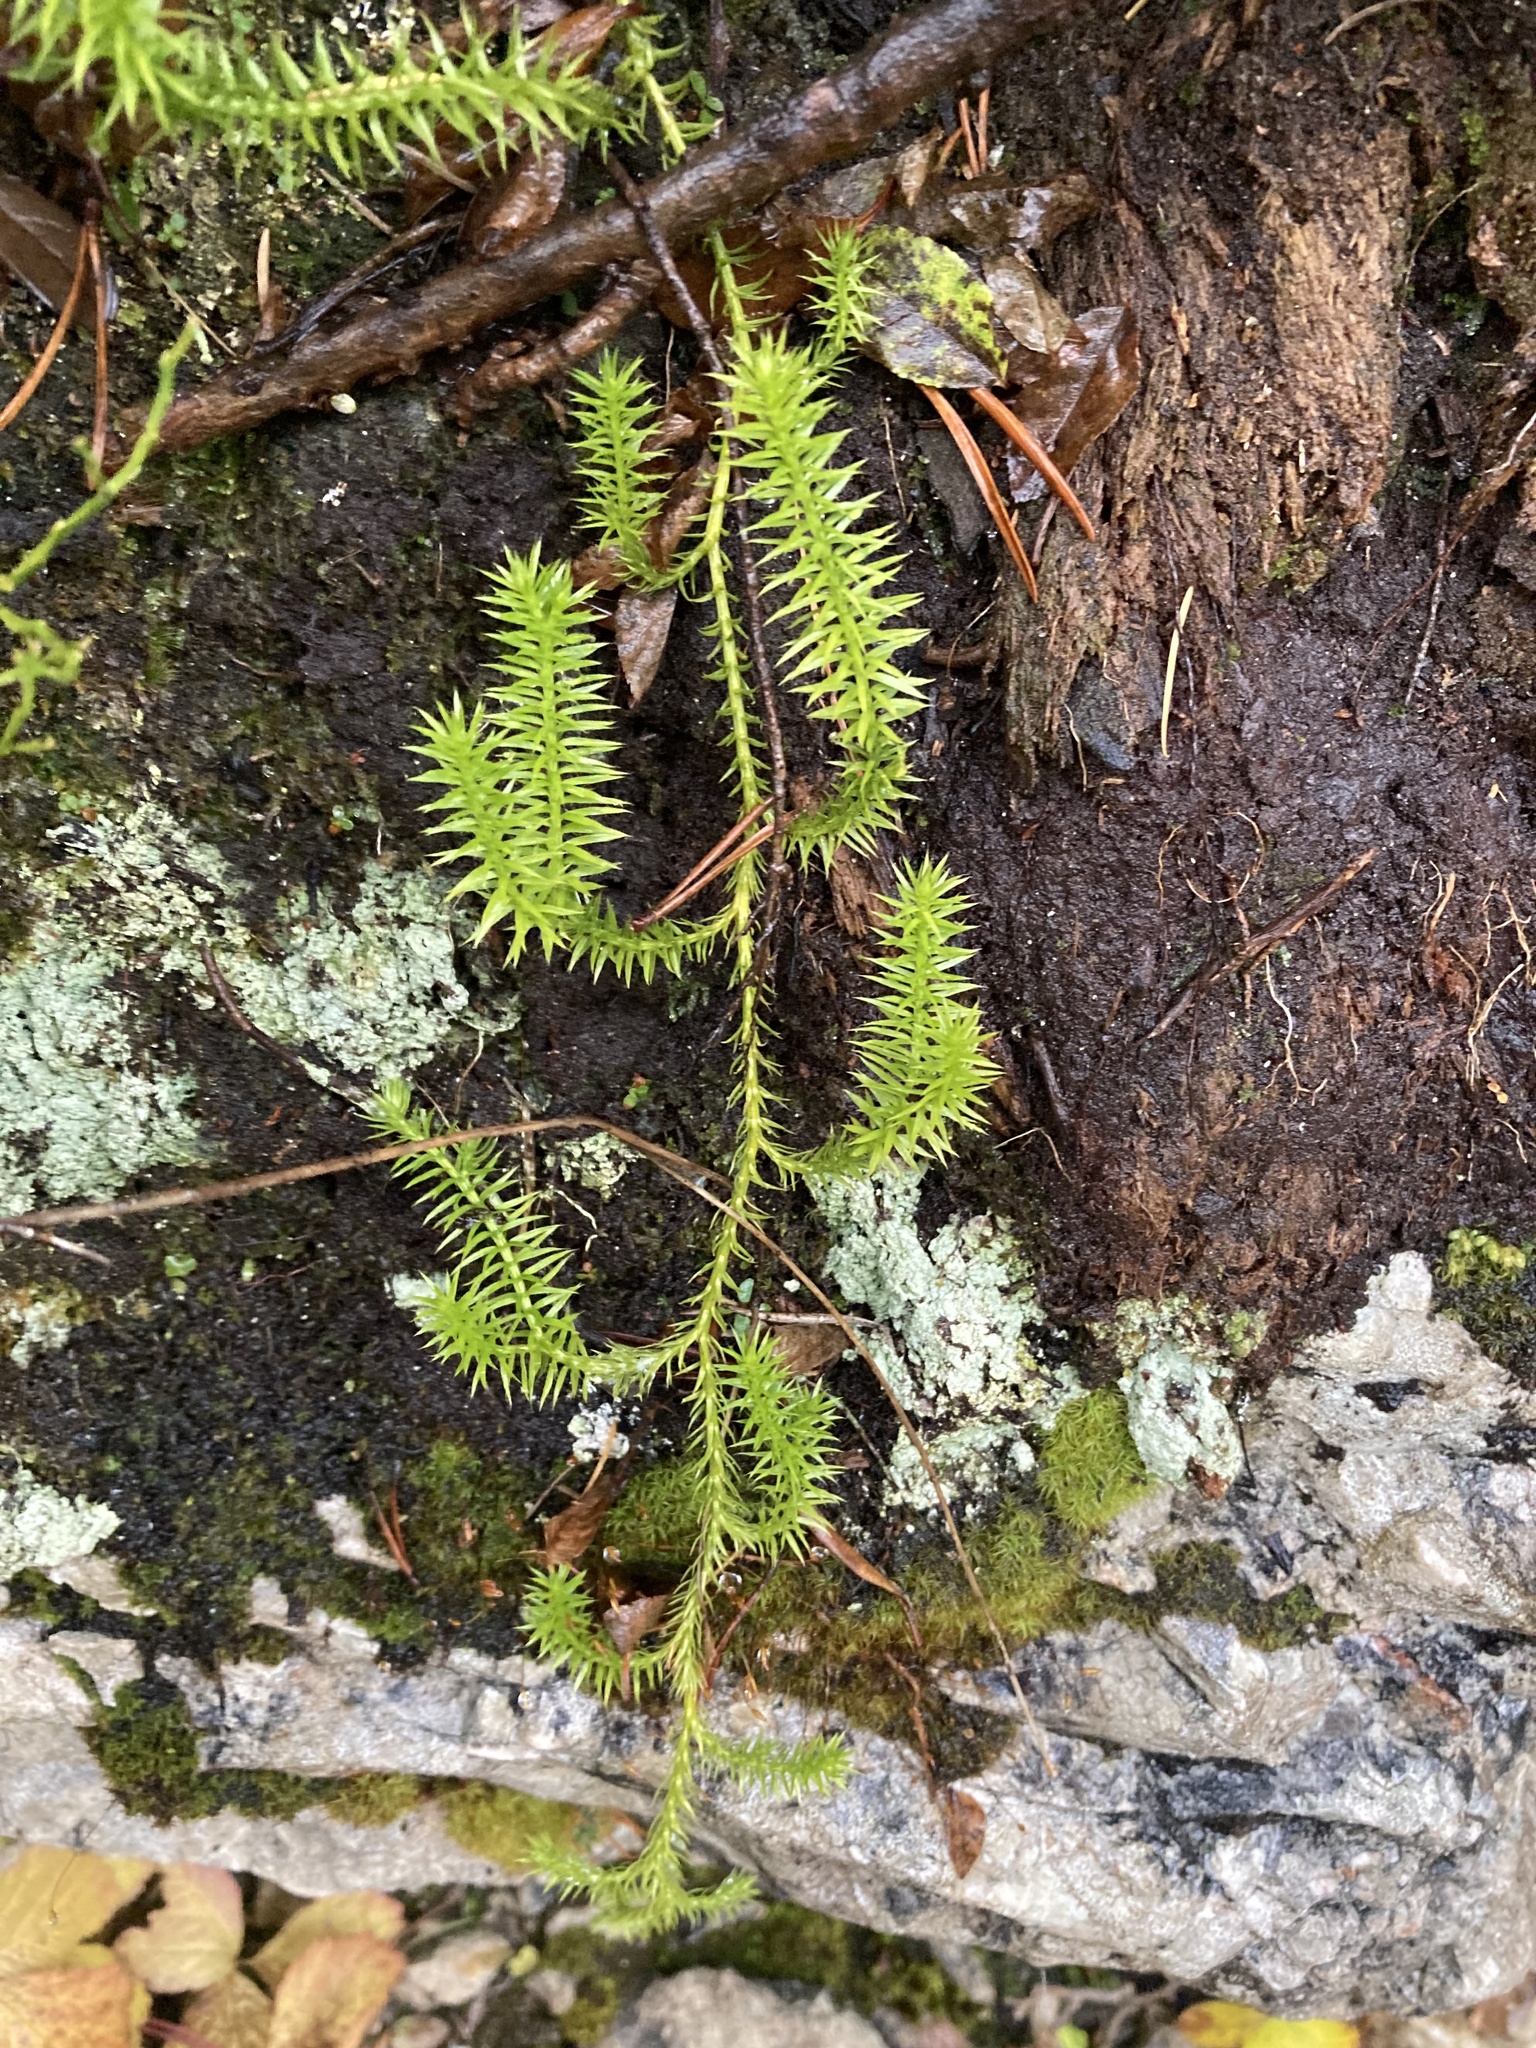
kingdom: Plantae
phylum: Tracheophyta
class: Lycopodiopsida
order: Lycopodiales
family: Lycopodiaceae
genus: Spinulum
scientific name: Spinulum annotinum
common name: Interrupted club-moss
